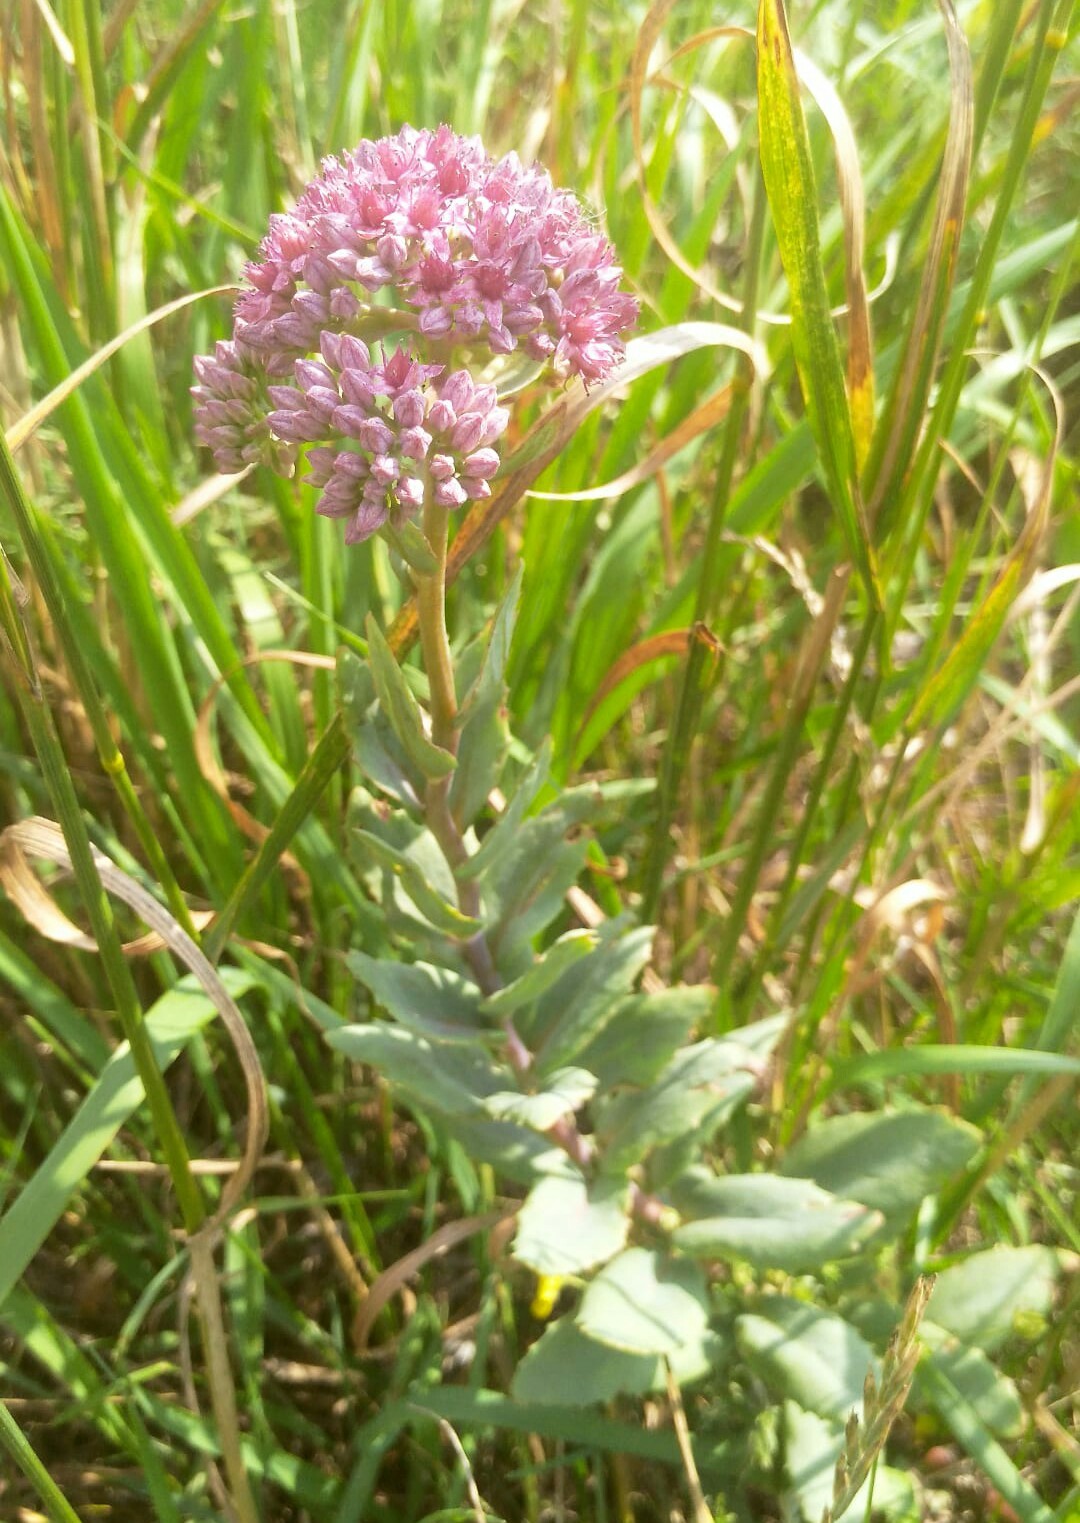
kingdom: Plantae
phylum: Tracheophyta
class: Magnoliopsida
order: Saxifragales
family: Crassulaceae
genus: Hylotelephium
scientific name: Hylotelephium telephium
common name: Live-forever
